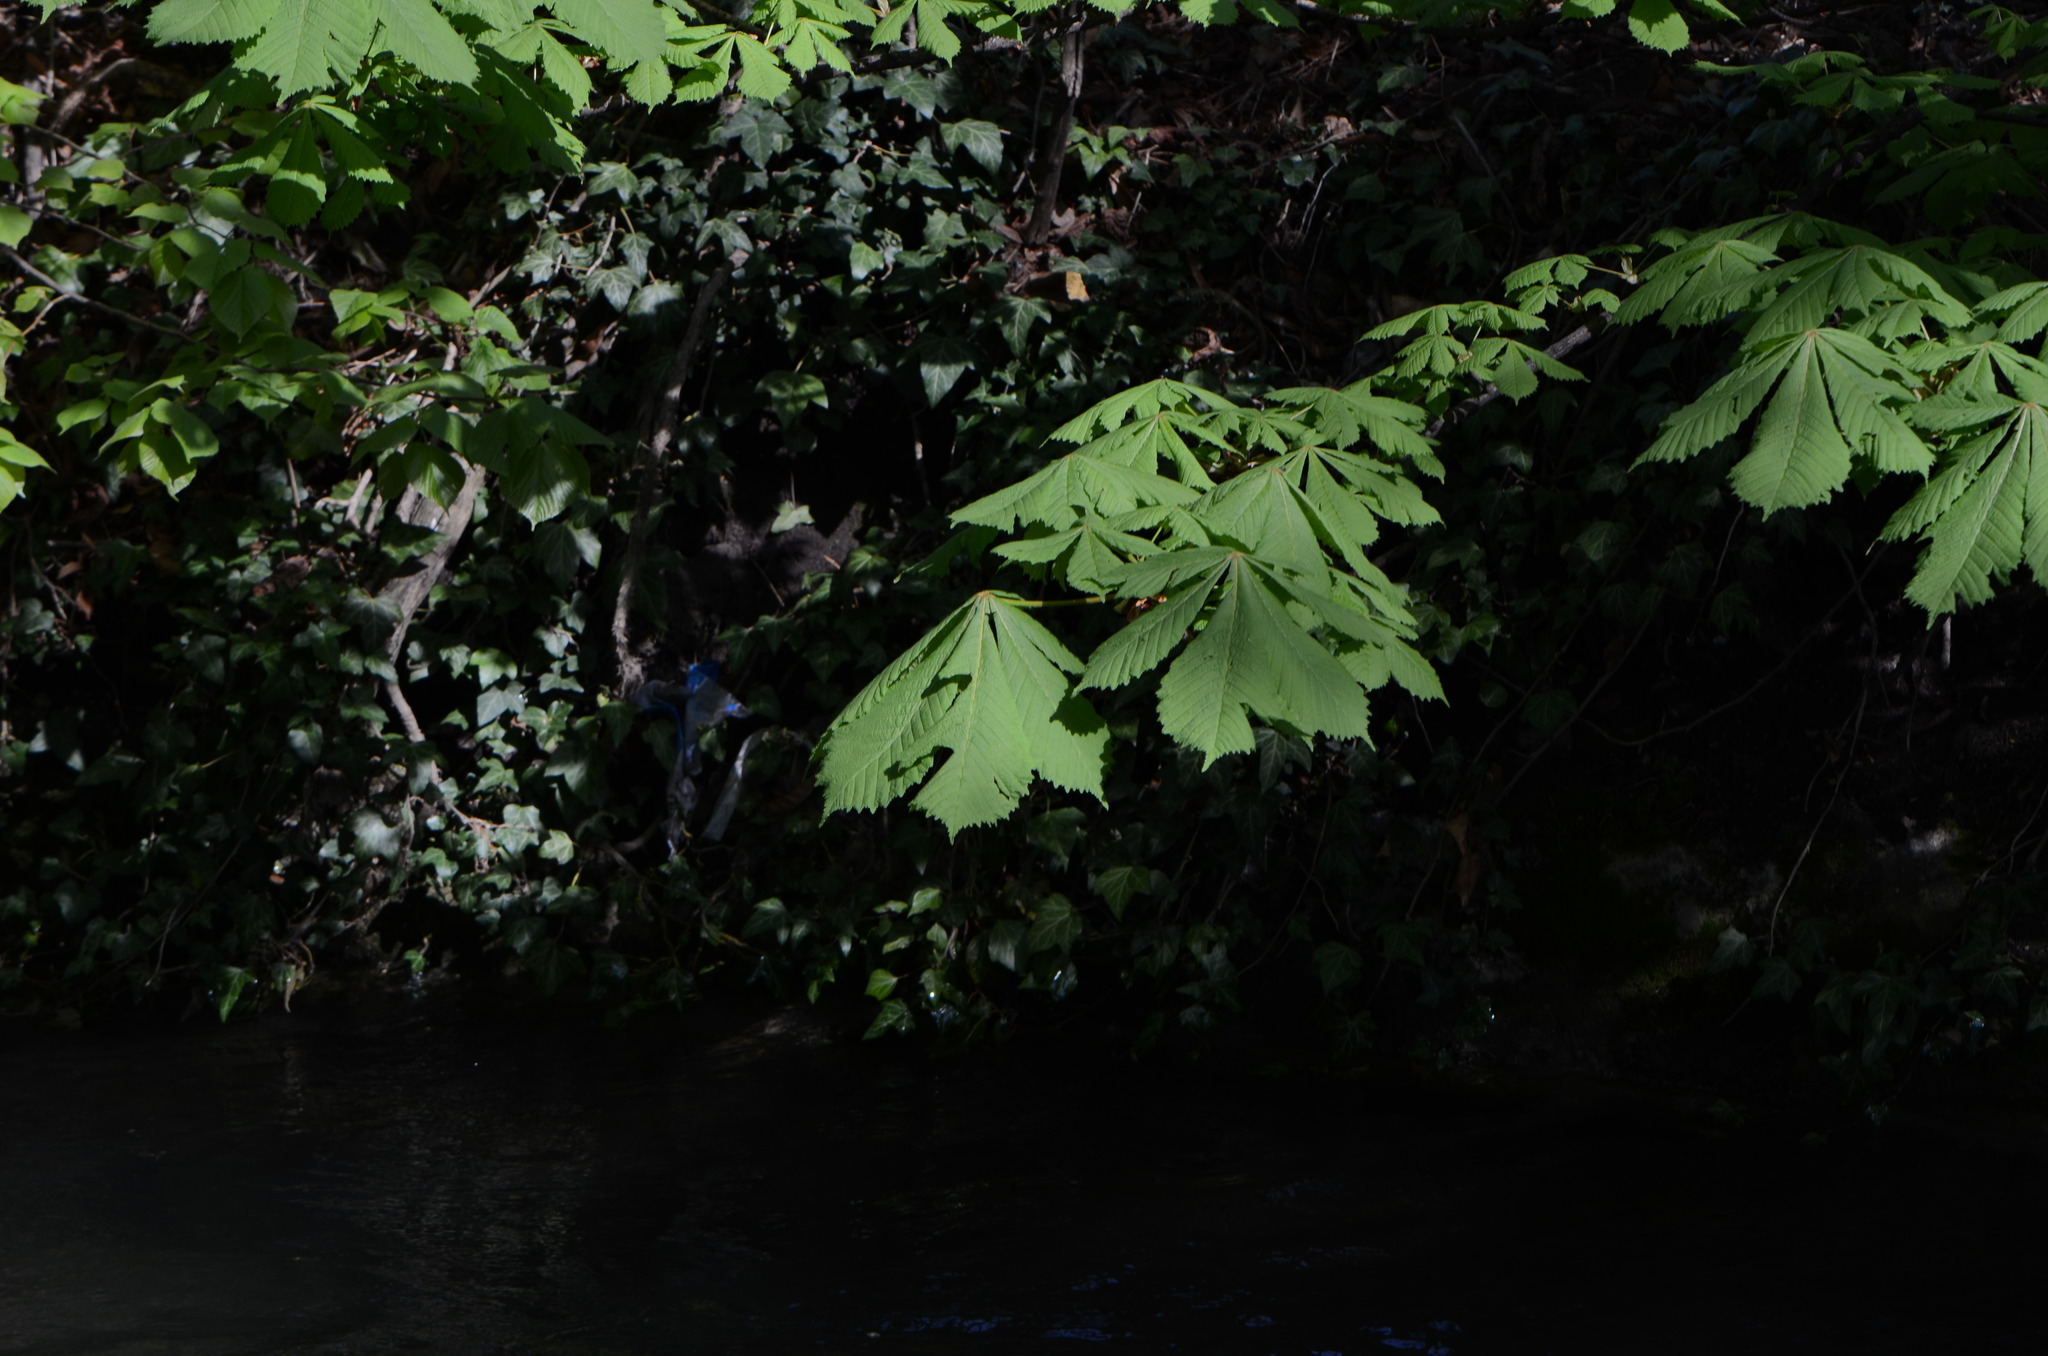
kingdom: Plantae
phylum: Tracheophyta
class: Magnoliopsida
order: Sapindales
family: Sapindaceae
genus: Aesculus
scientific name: Aesculus hippocastanum
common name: Horse-chestnut
